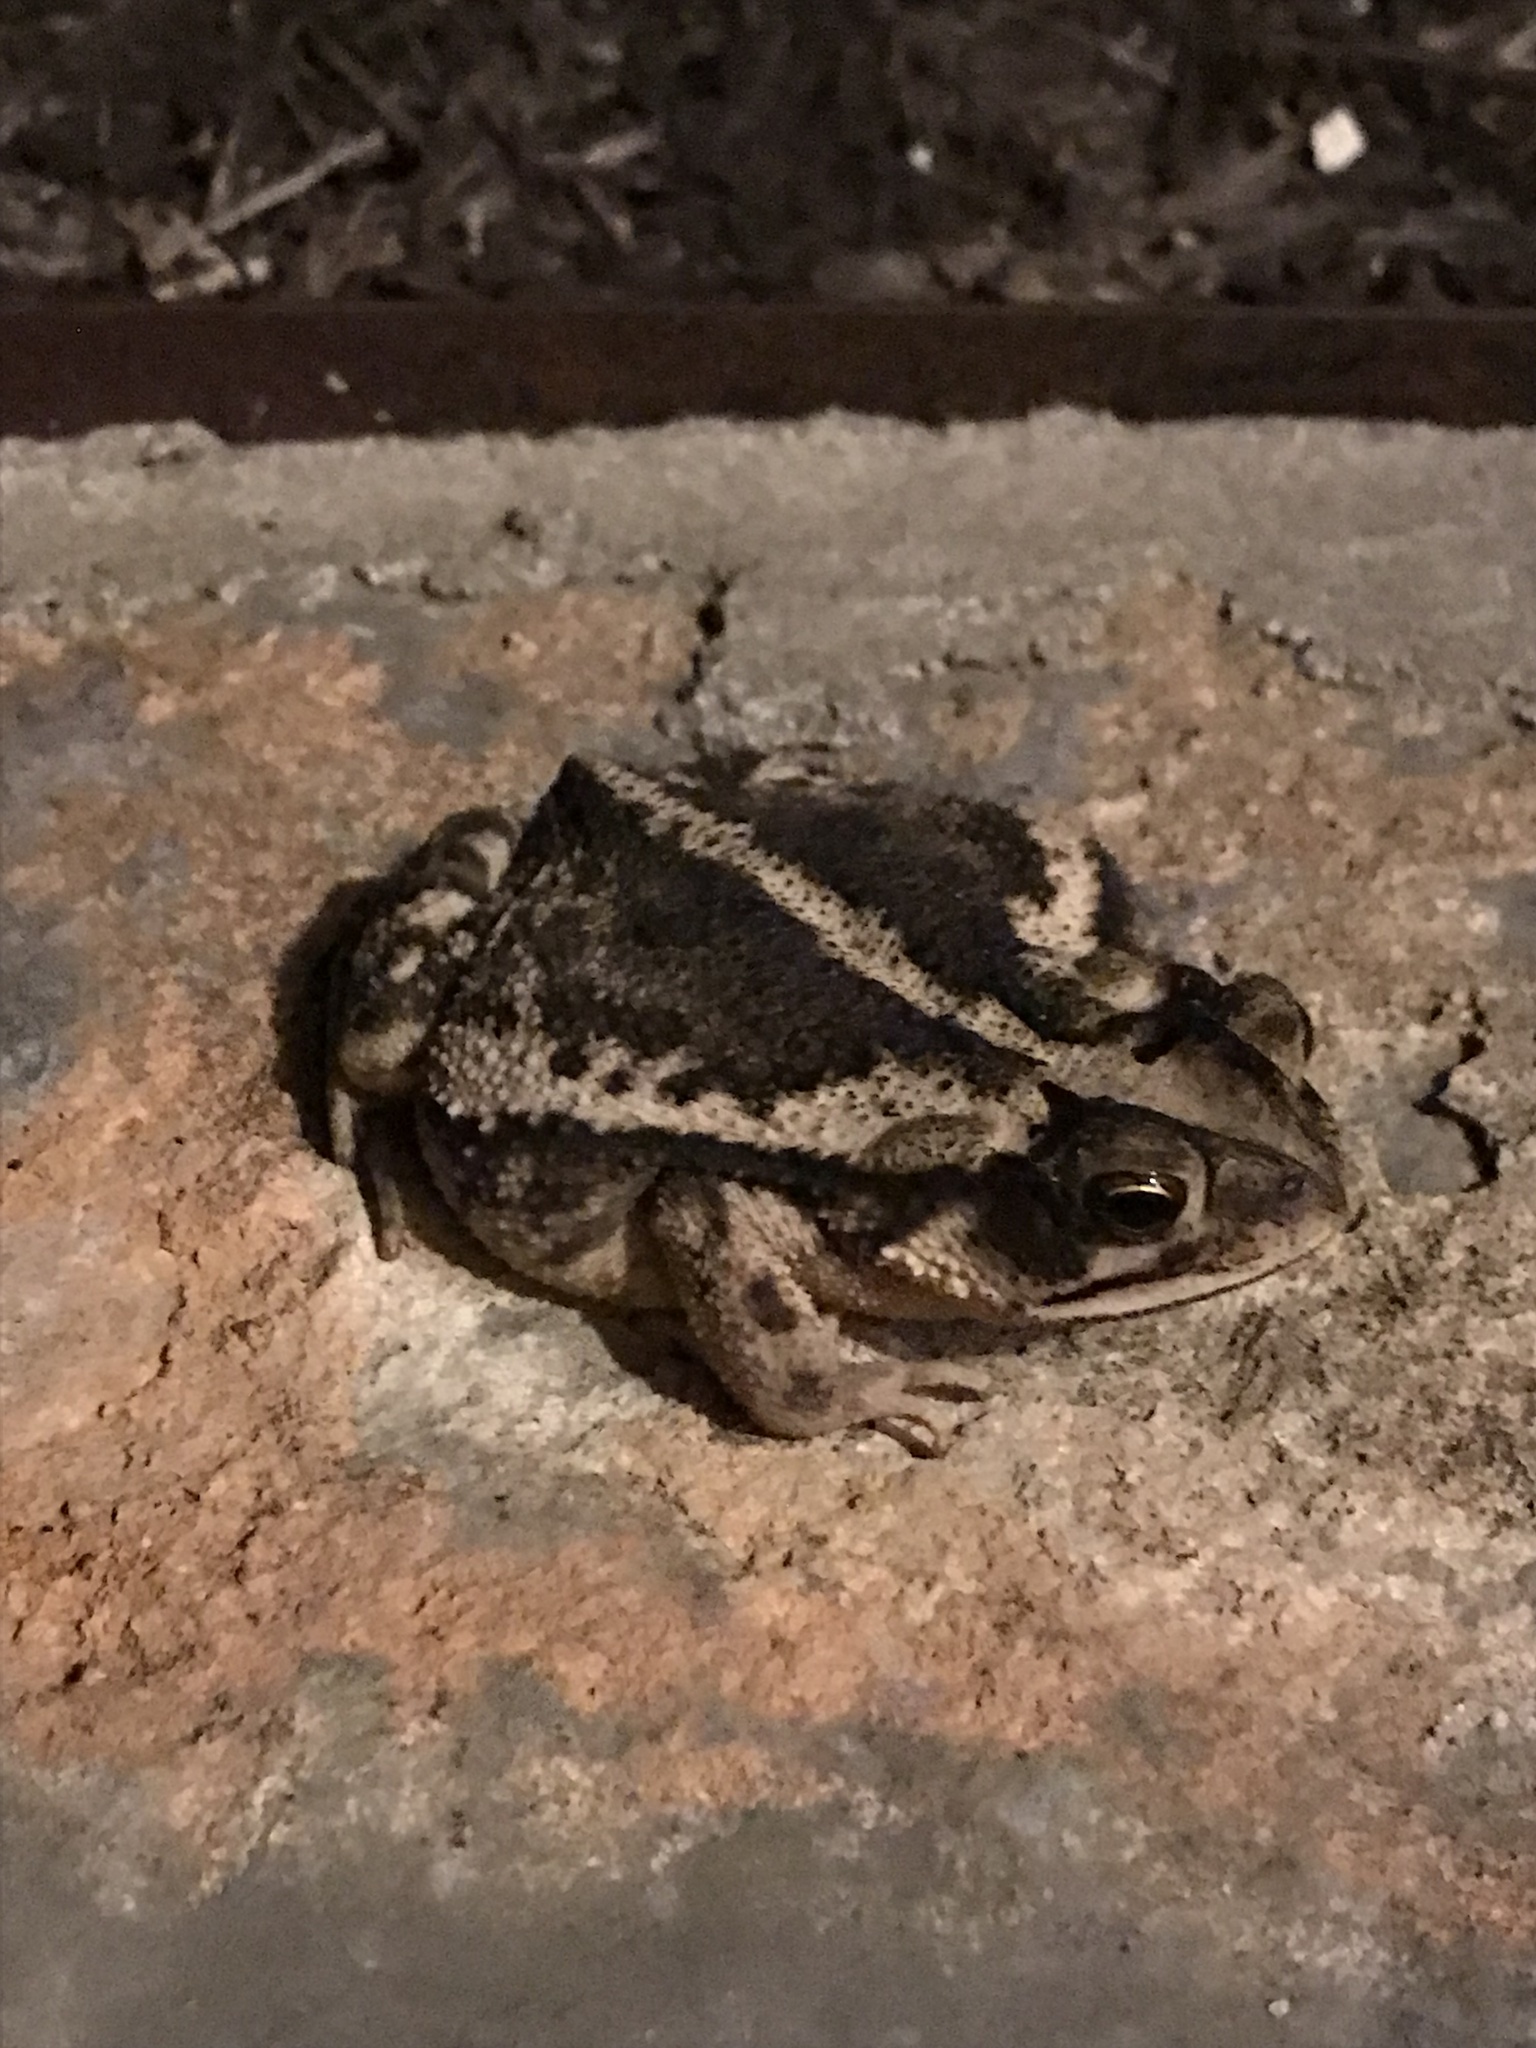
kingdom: Animalia
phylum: Chordata
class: Amphibia
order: Anura
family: Bufonidae
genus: Incilius
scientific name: Incilius nebulifer
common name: Gulf coast toad
